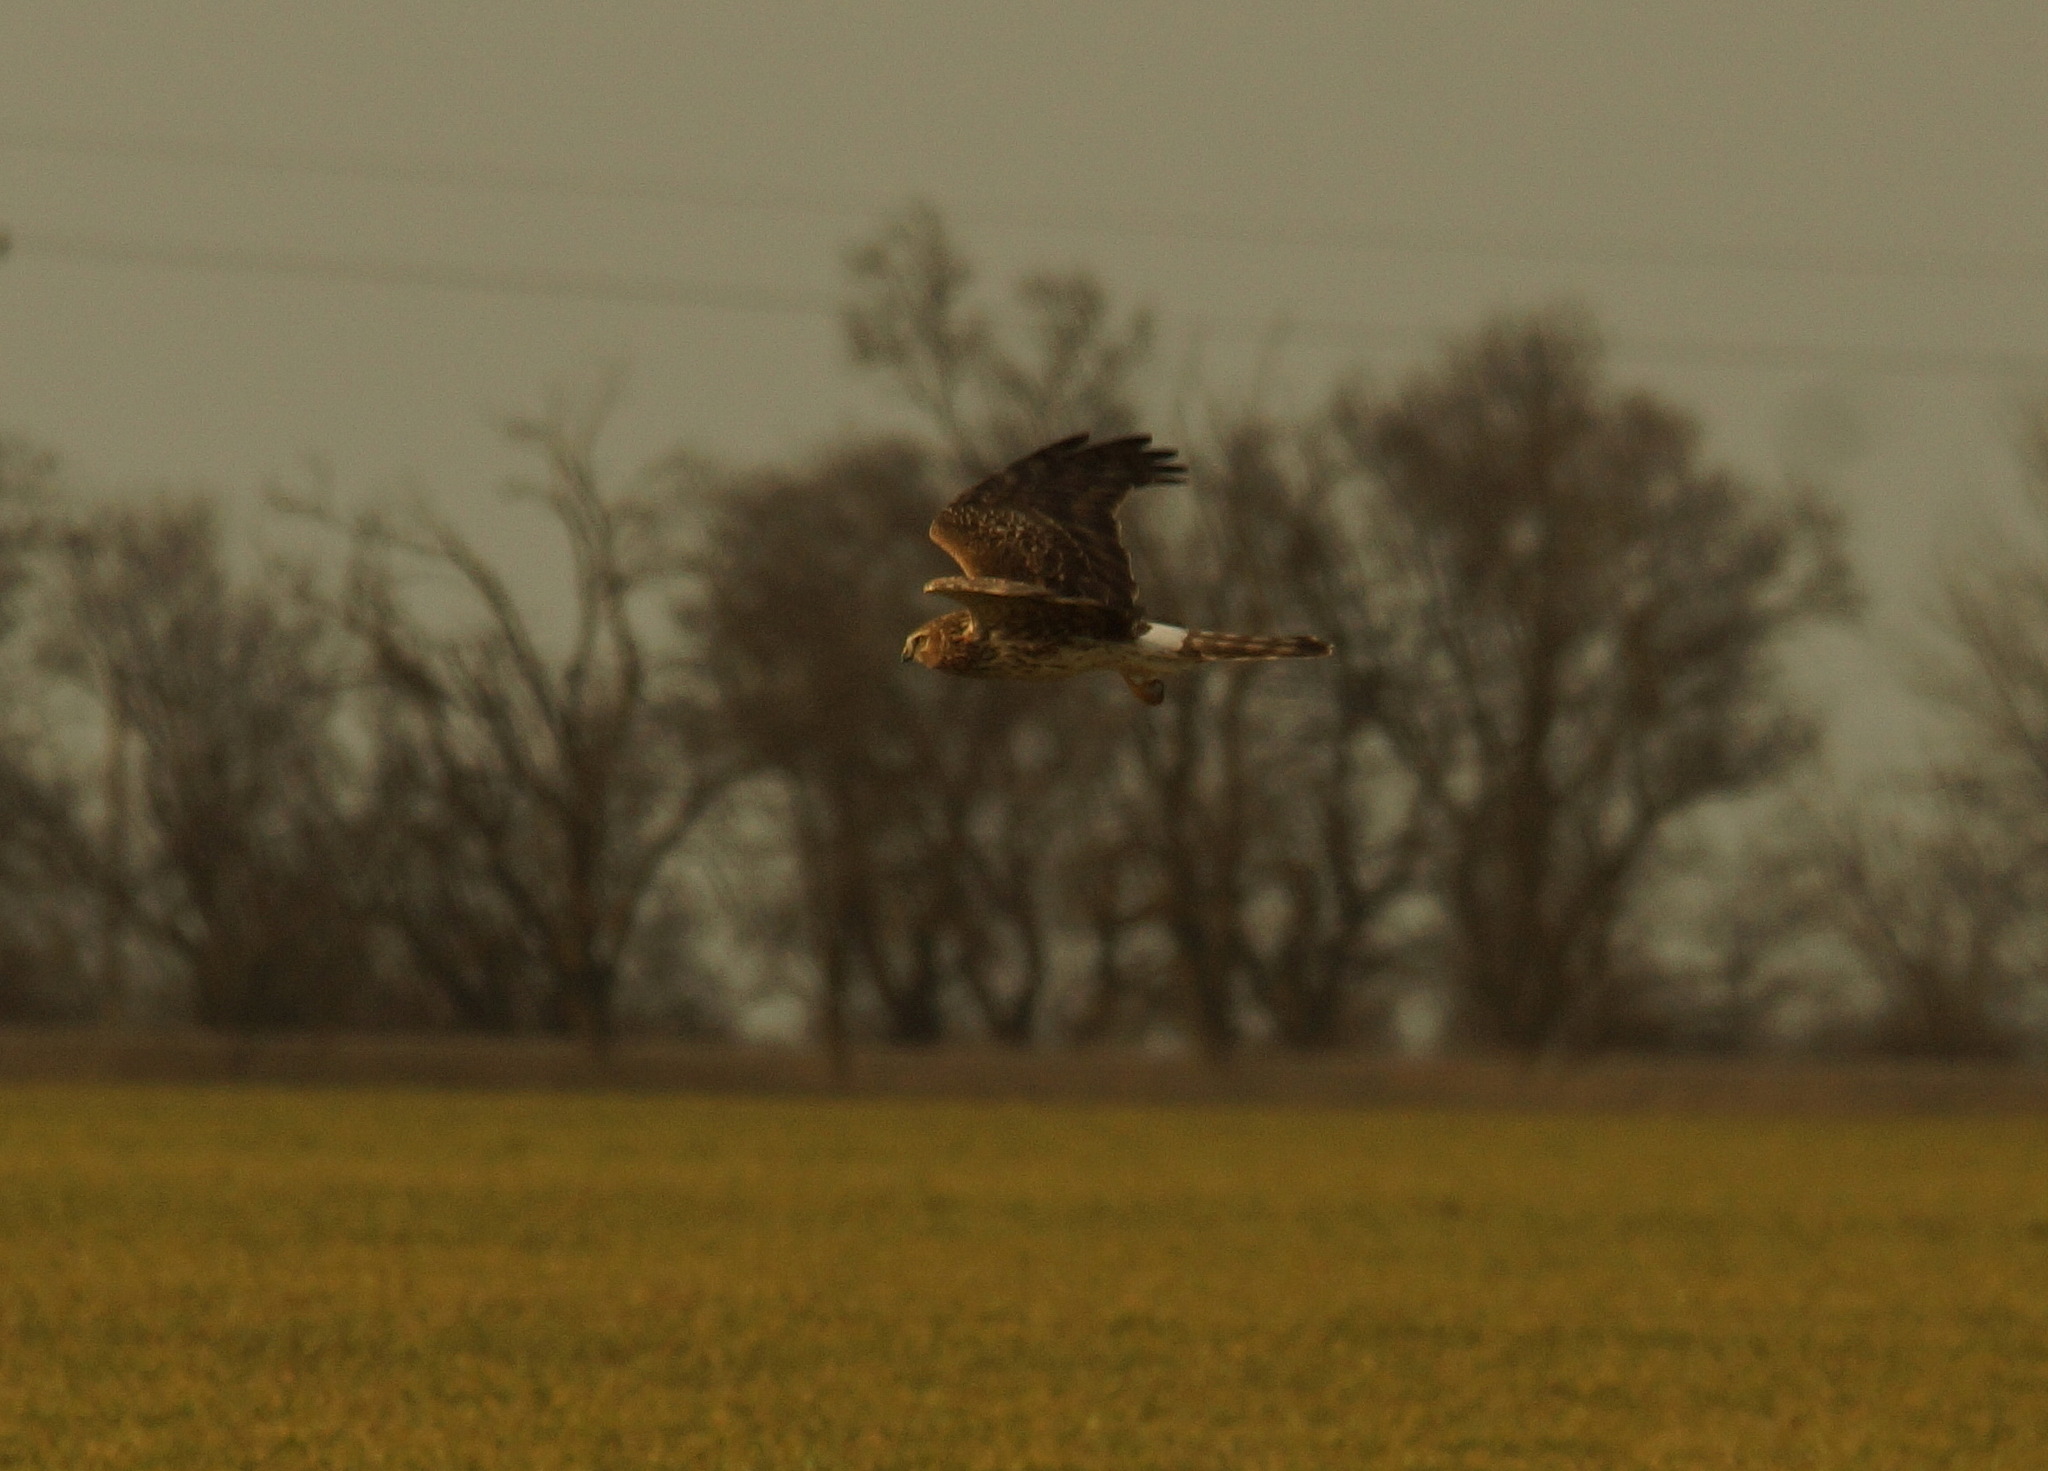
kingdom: Animalia
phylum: Chordata
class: Aves
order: Accipitriformes
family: Accipitridae
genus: Circus
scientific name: Circus cyaneus
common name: Hen harrier
